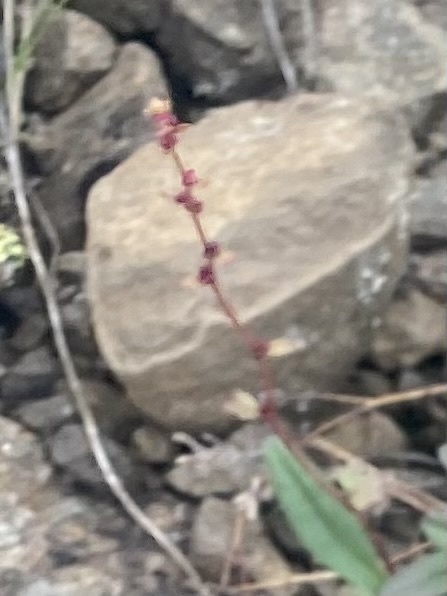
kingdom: Plantae
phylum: Tracheophyta
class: Magnoliopsida
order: Saxifragales
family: Saxifragaceae
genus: Saxifraga
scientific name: Saxifraga cernua
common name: Drooping saxifrage
